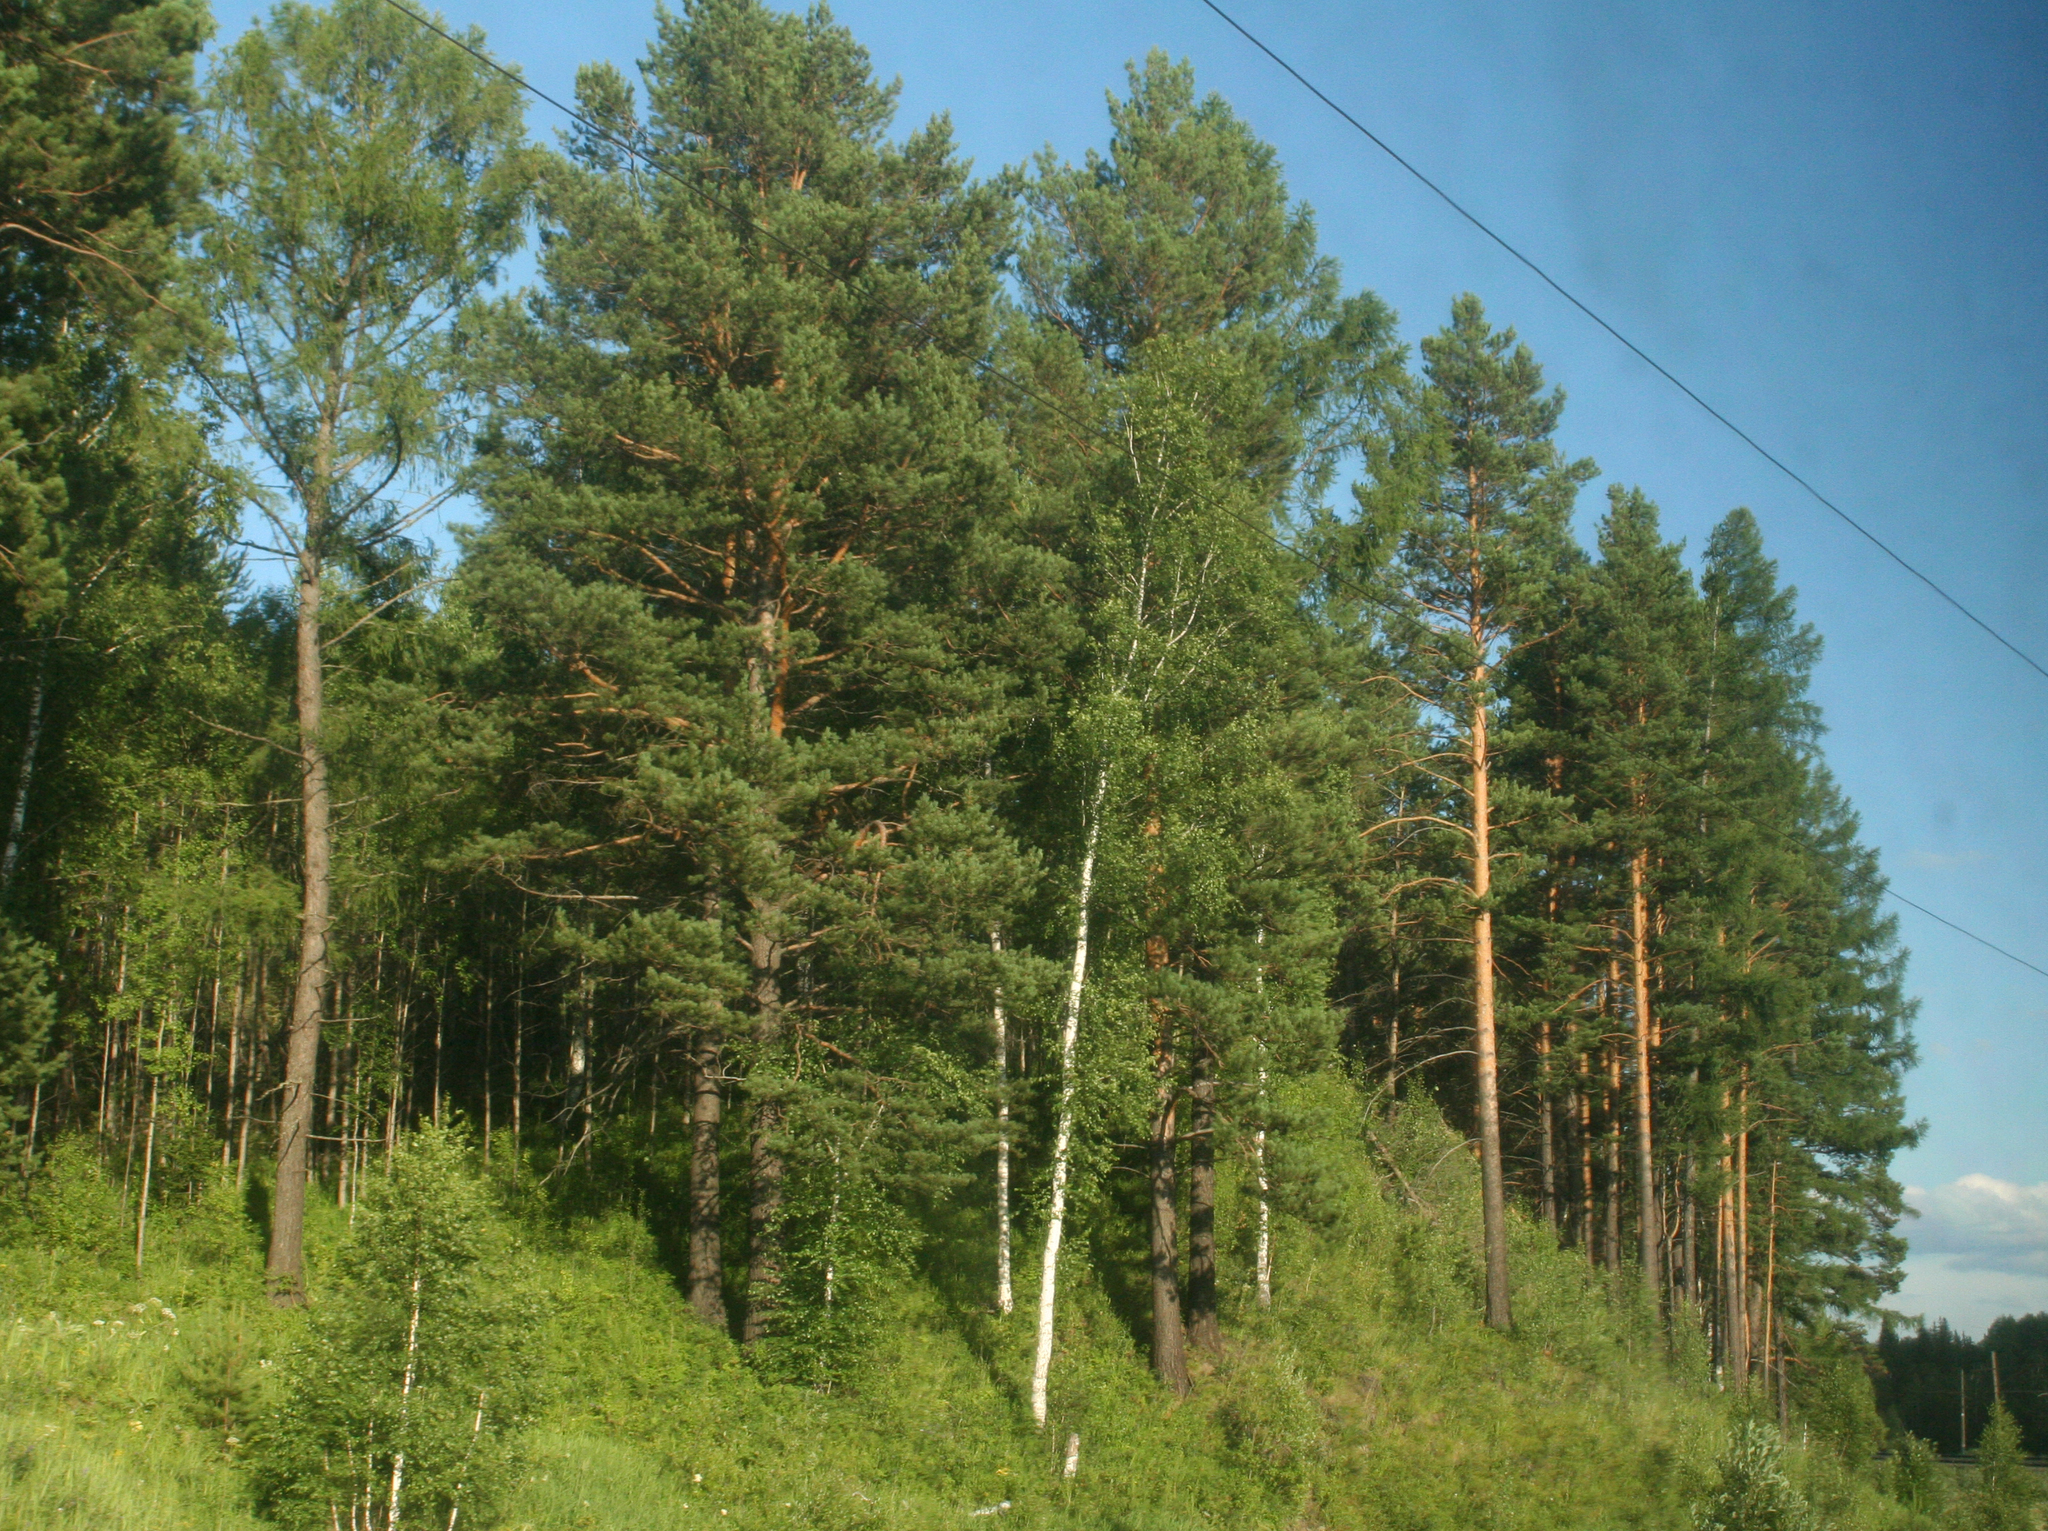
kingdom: Plantae
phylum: Tracheophyta
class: Pinopsida
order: Pinales
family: Pinaceae
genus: Pinus
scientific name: Pinus sylvestris
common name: Scots pine
